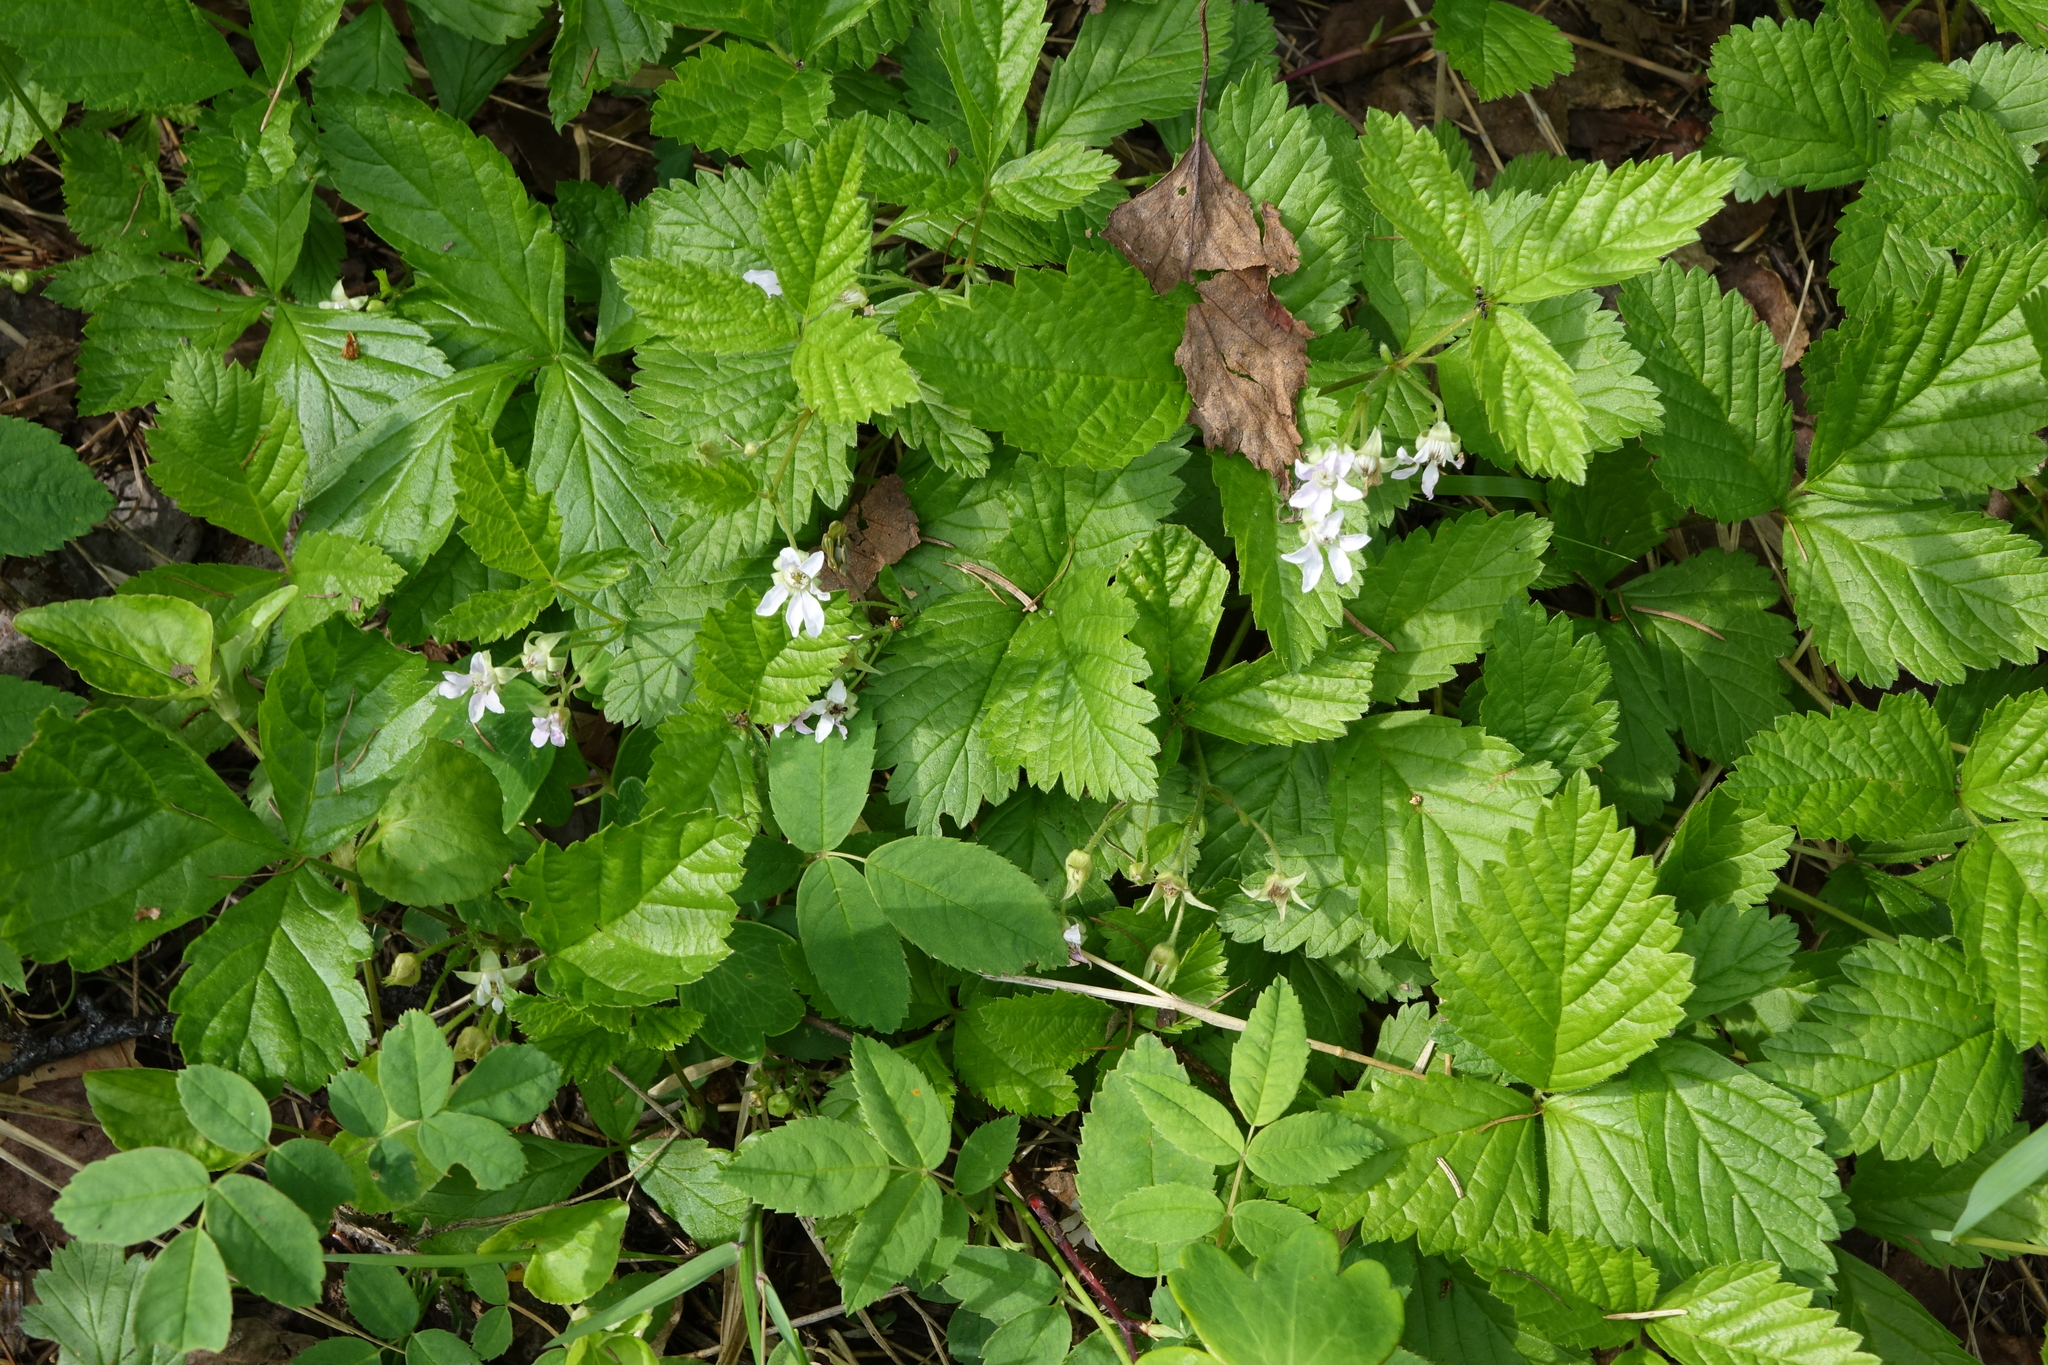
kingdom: Plantae
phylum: Tracheophyta
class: Magnoliopsida
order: Rosales
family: Rosaceae
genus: Rubus
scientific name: Rubus saxatilis
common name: Stone bramble
